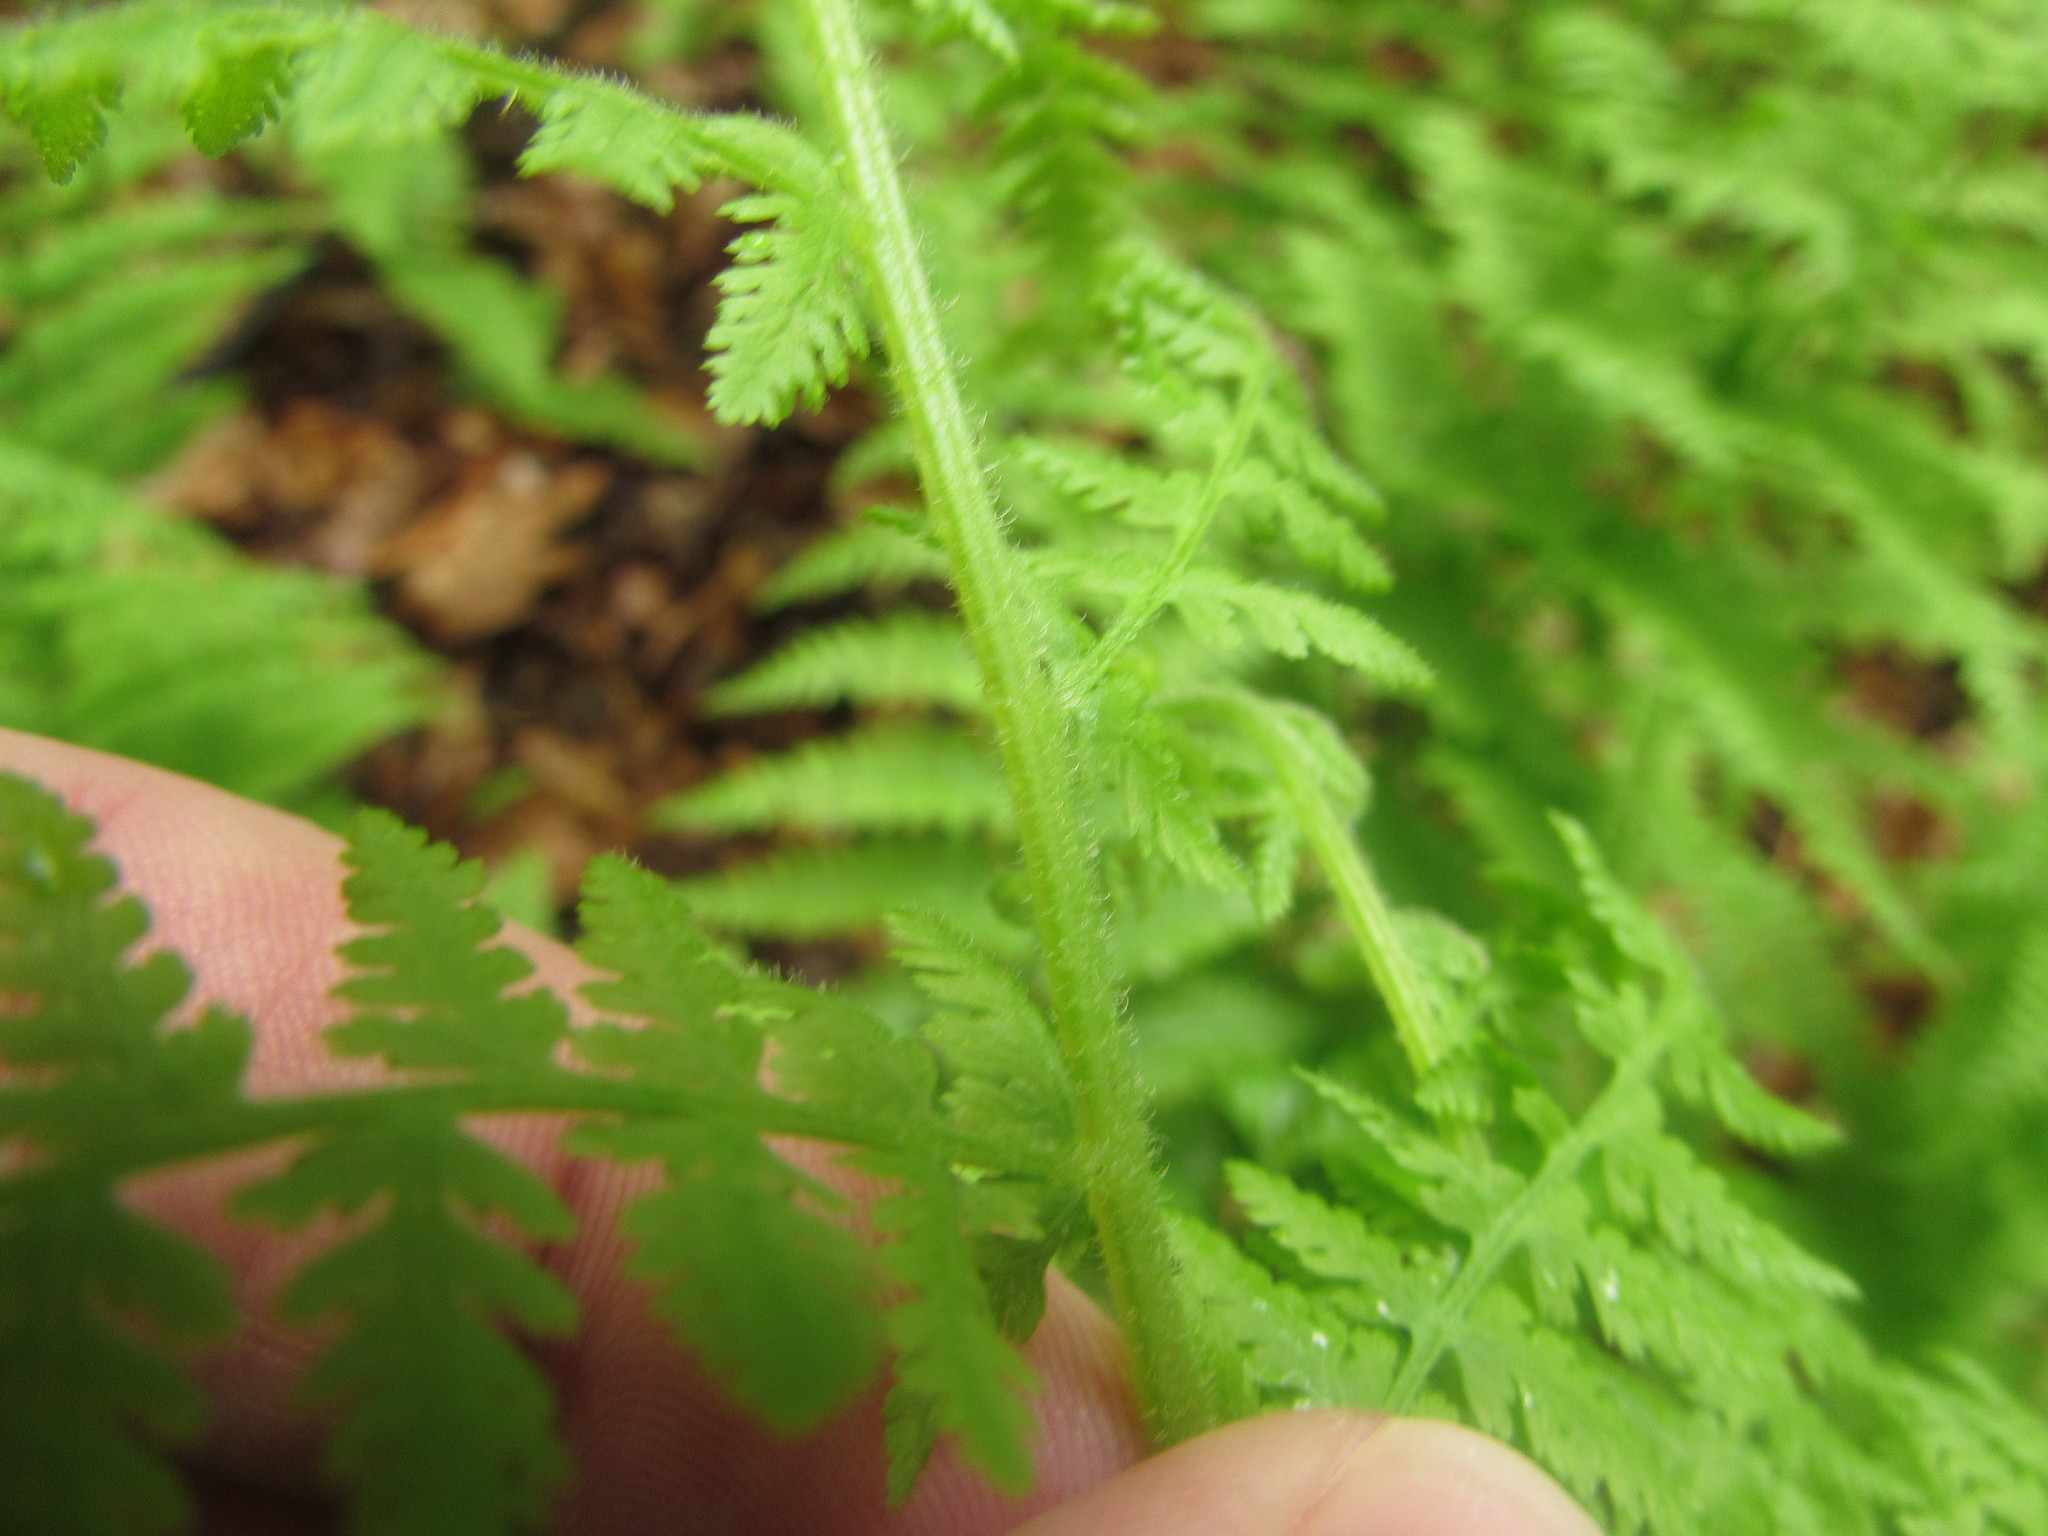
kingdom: Plantae
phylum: Tracheophyta
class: Polypodiopsida
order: Polypodiales
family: Dennstaedtiaceae
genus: Sitobolium
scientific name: Sitobolium punctilobum
